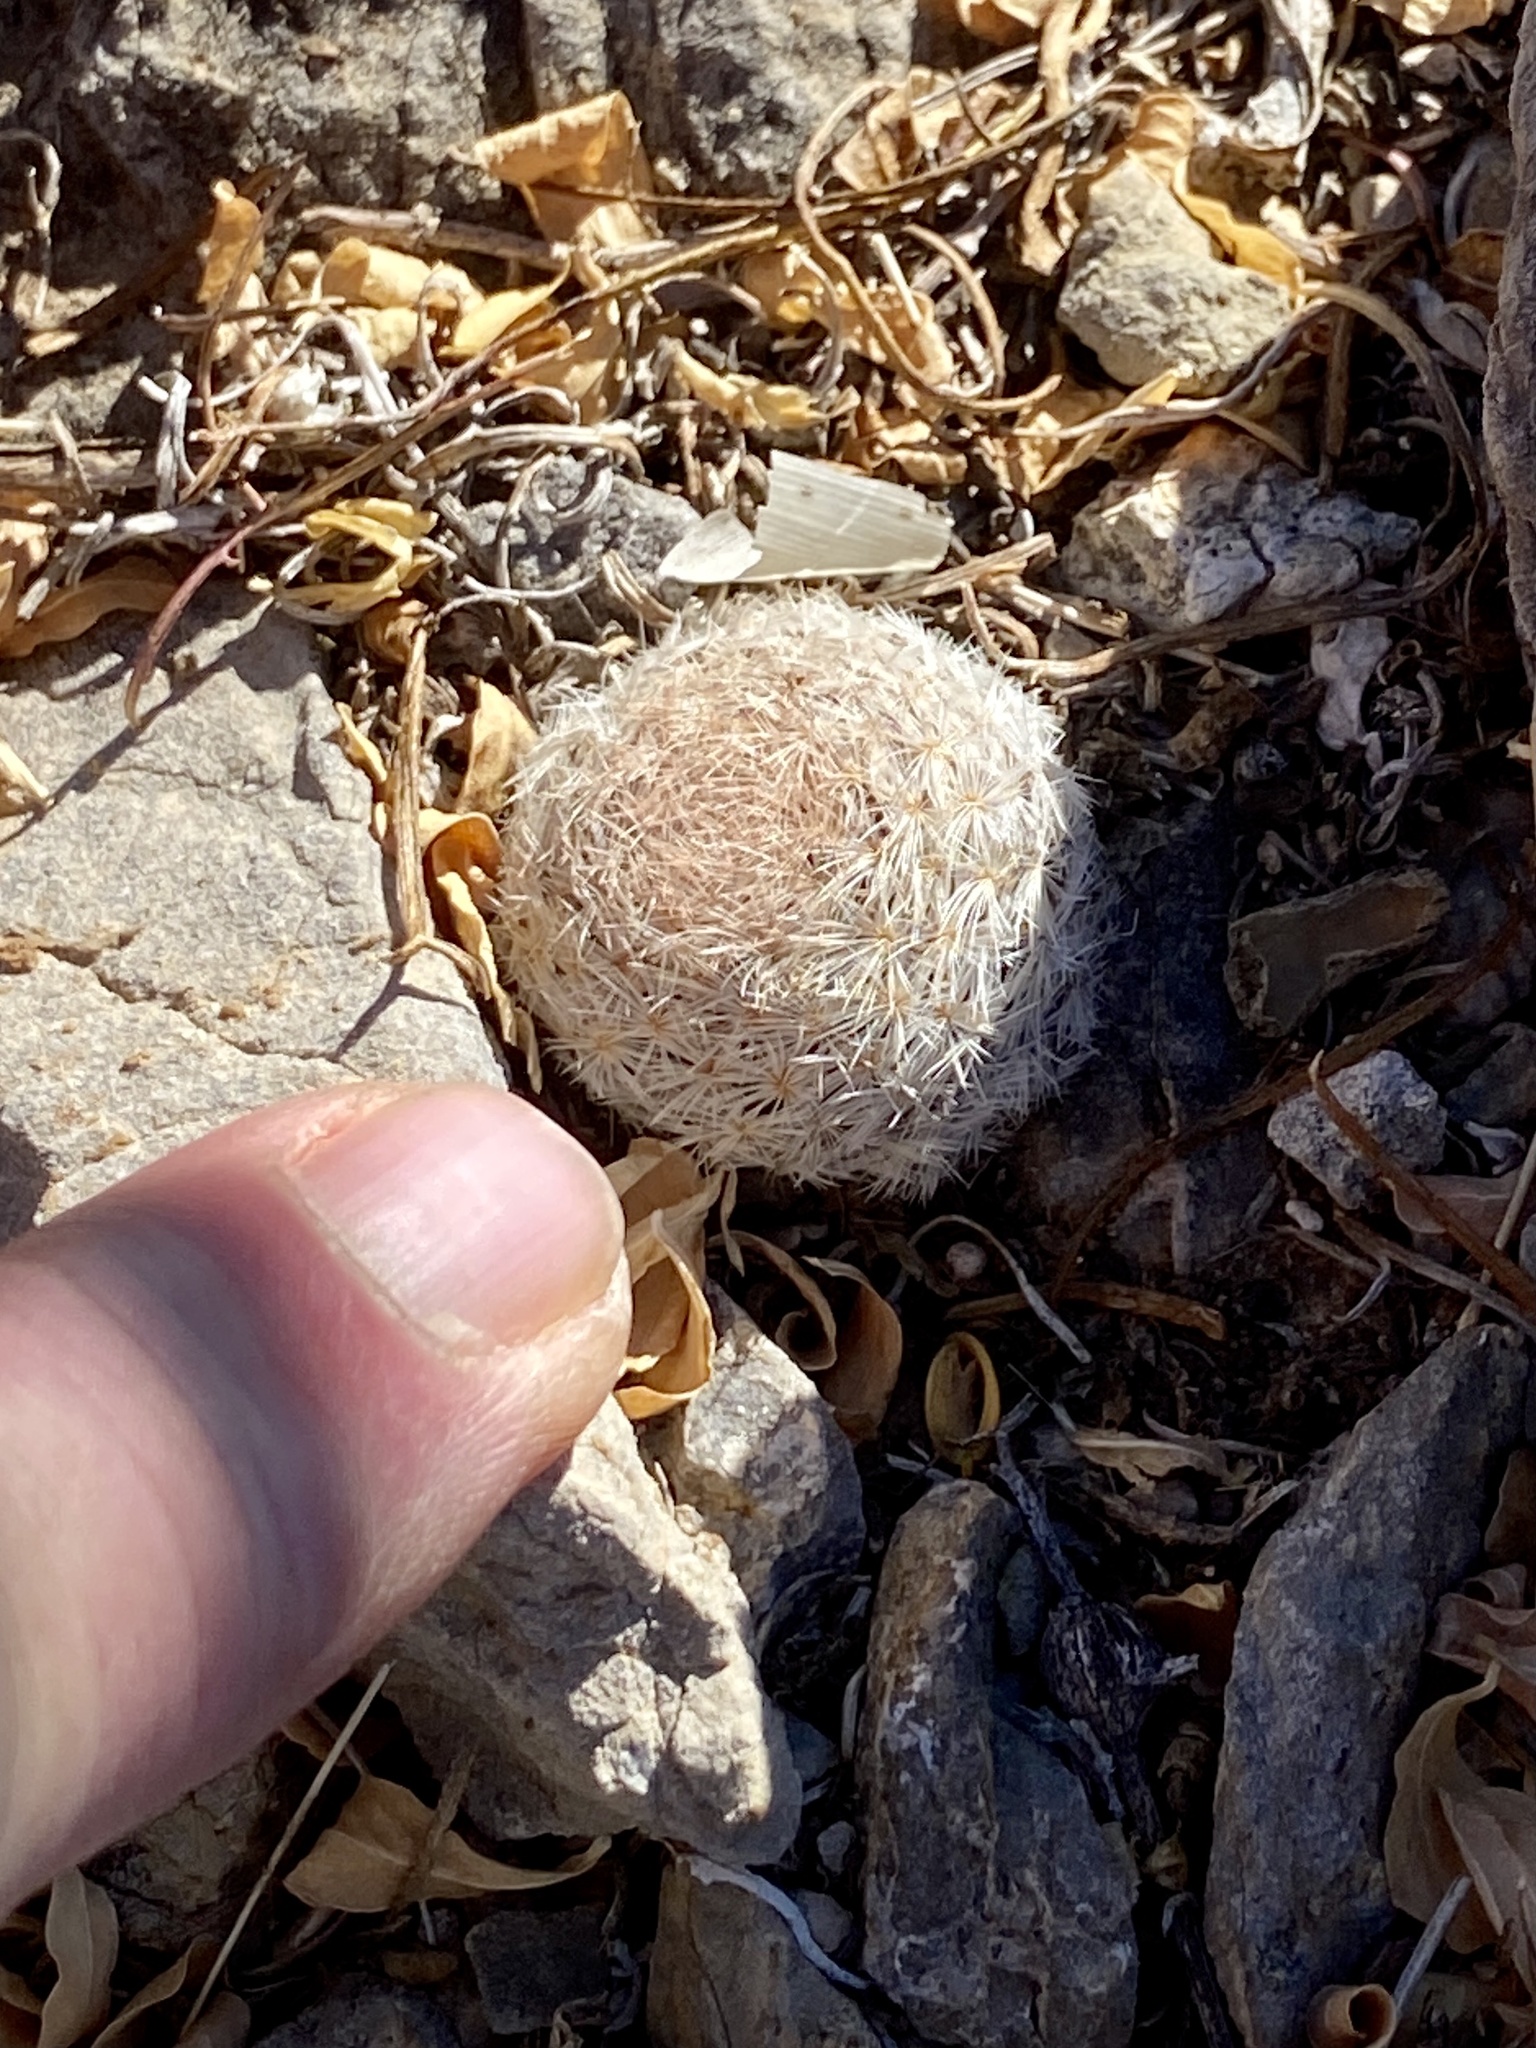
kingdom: Plantae
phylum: Tracheophyta
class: Magnoliopsida
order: Caryophyllales
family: Cactaceae
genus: Mammillaria
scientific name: Mammillaria lasiacantha
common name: Lace-spine nipple cactus
